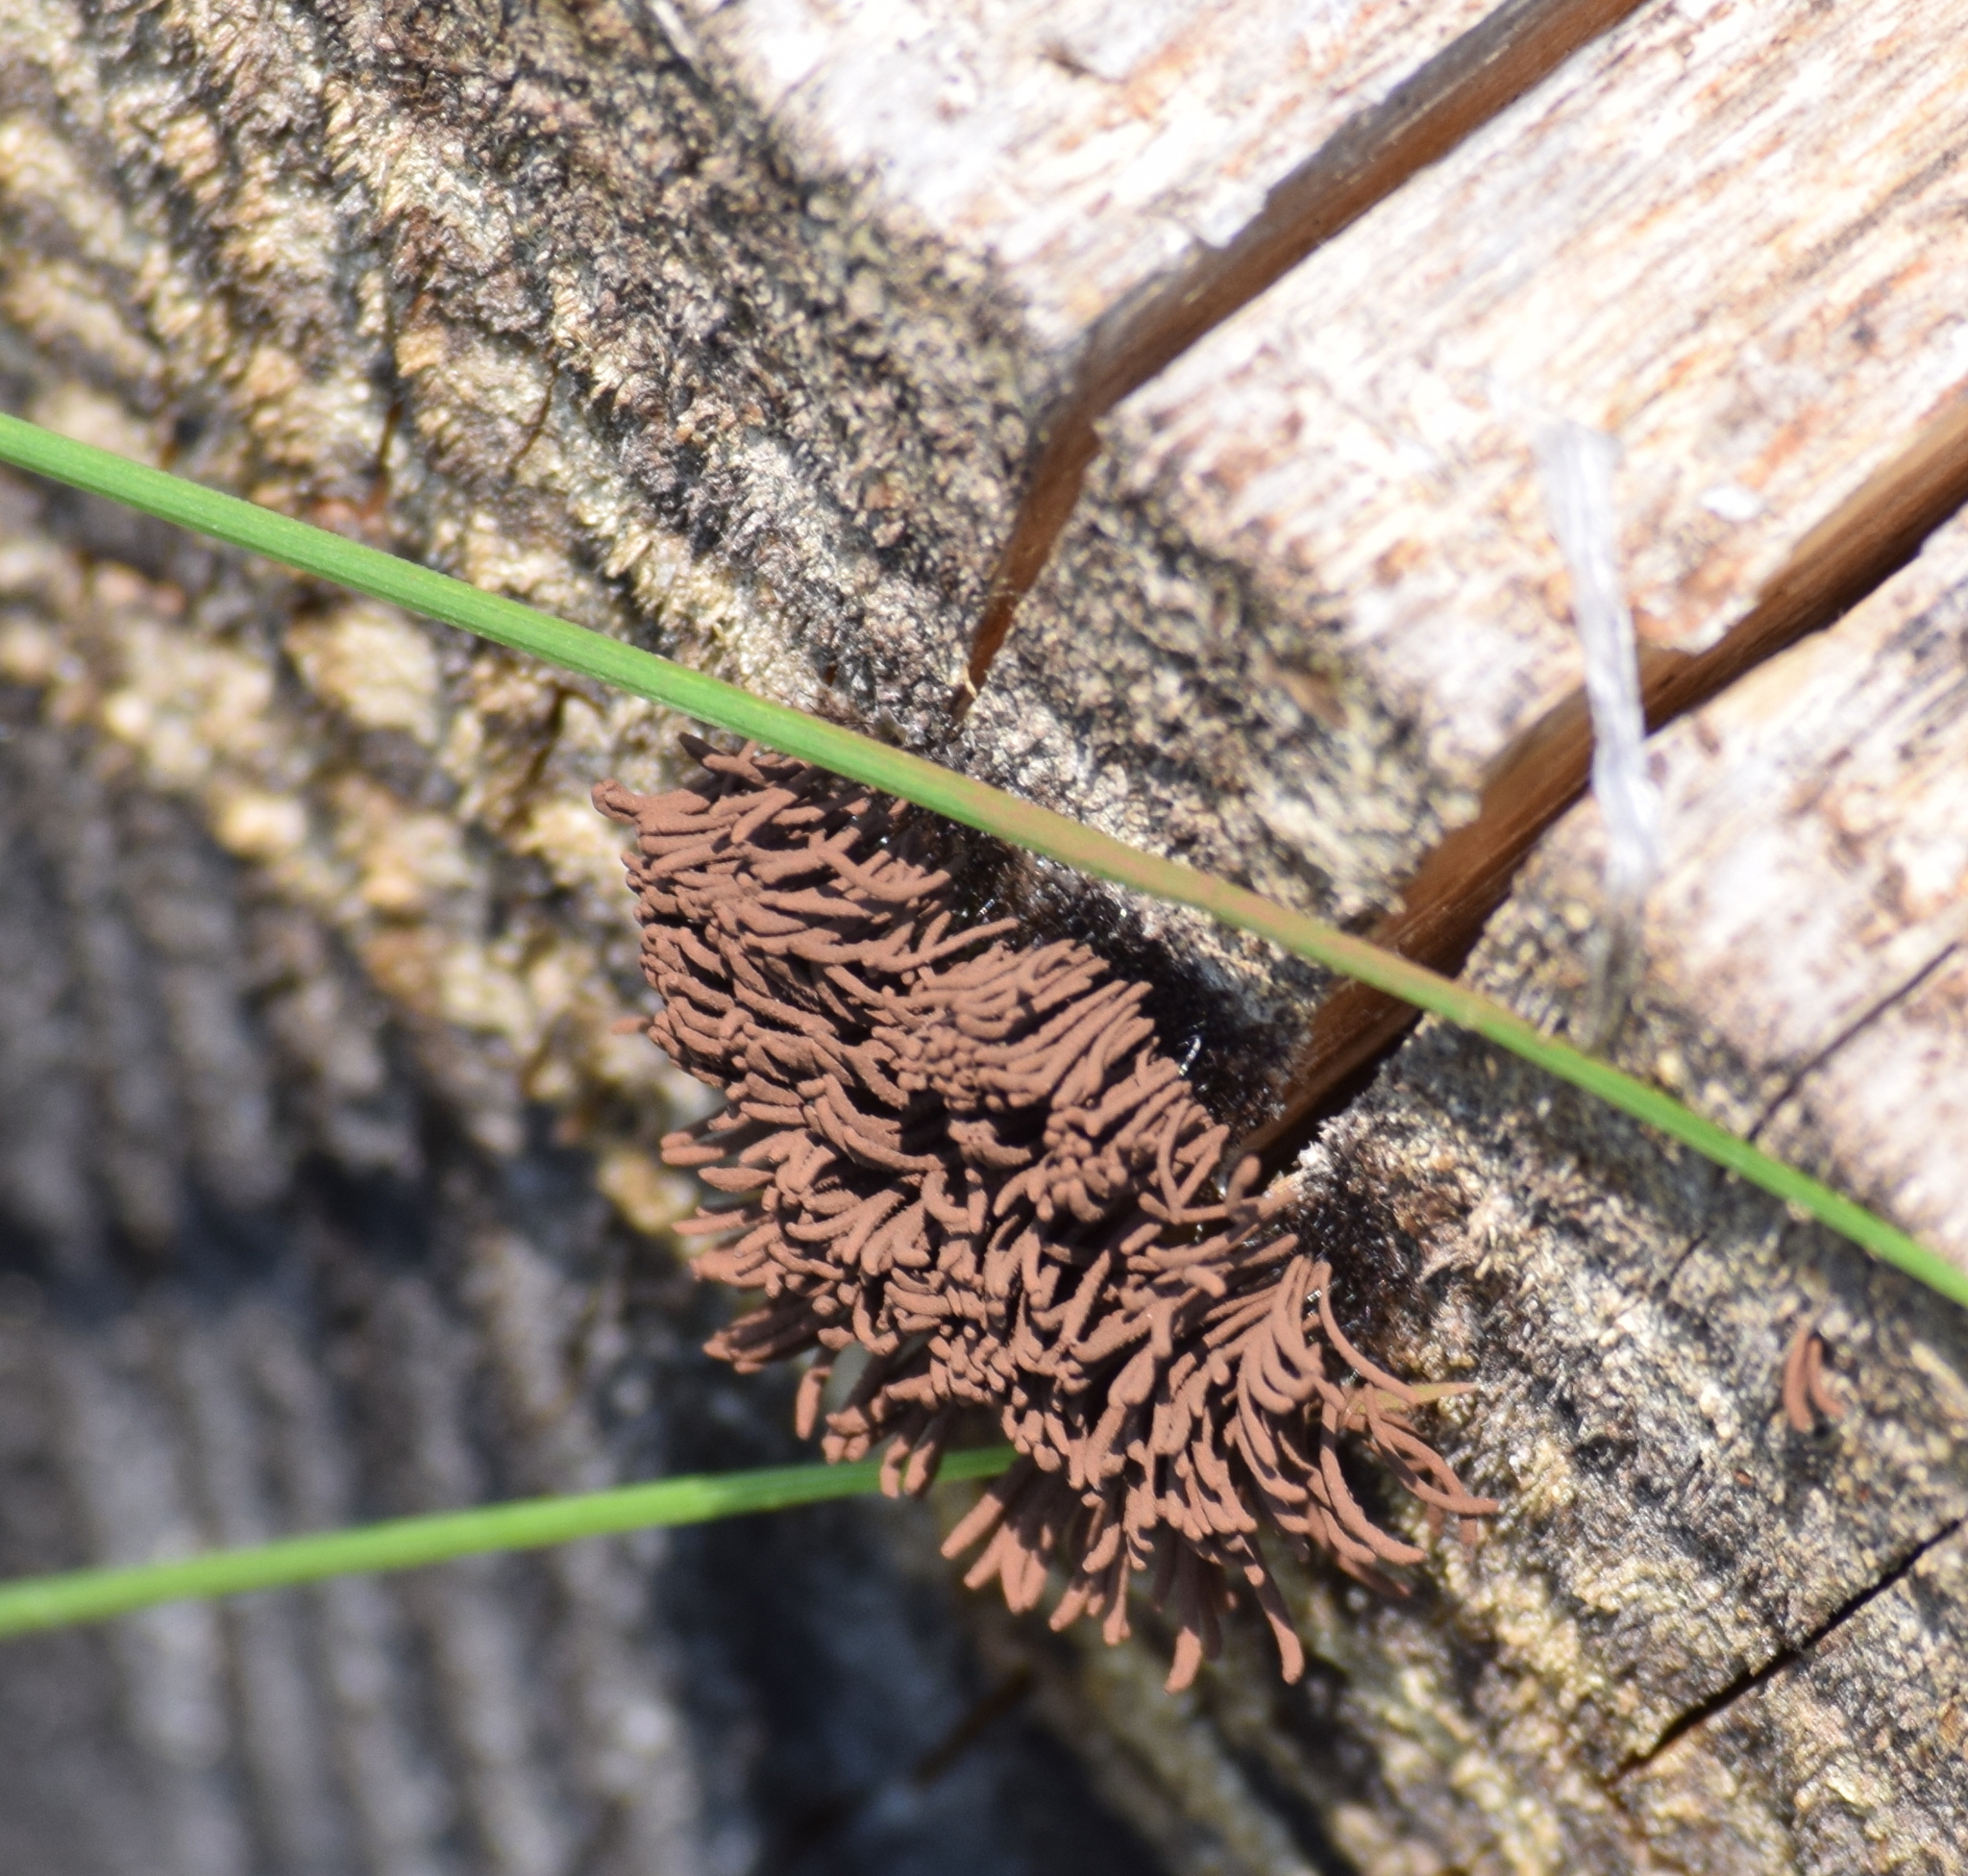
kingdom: Protozoa
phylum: Mycetozoa
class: Myxomycetes
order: Stemonitidales
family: Stemonitidaceae
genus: Stemonitis
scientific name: Stemonitis splendens
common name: Chocolate tube slime
